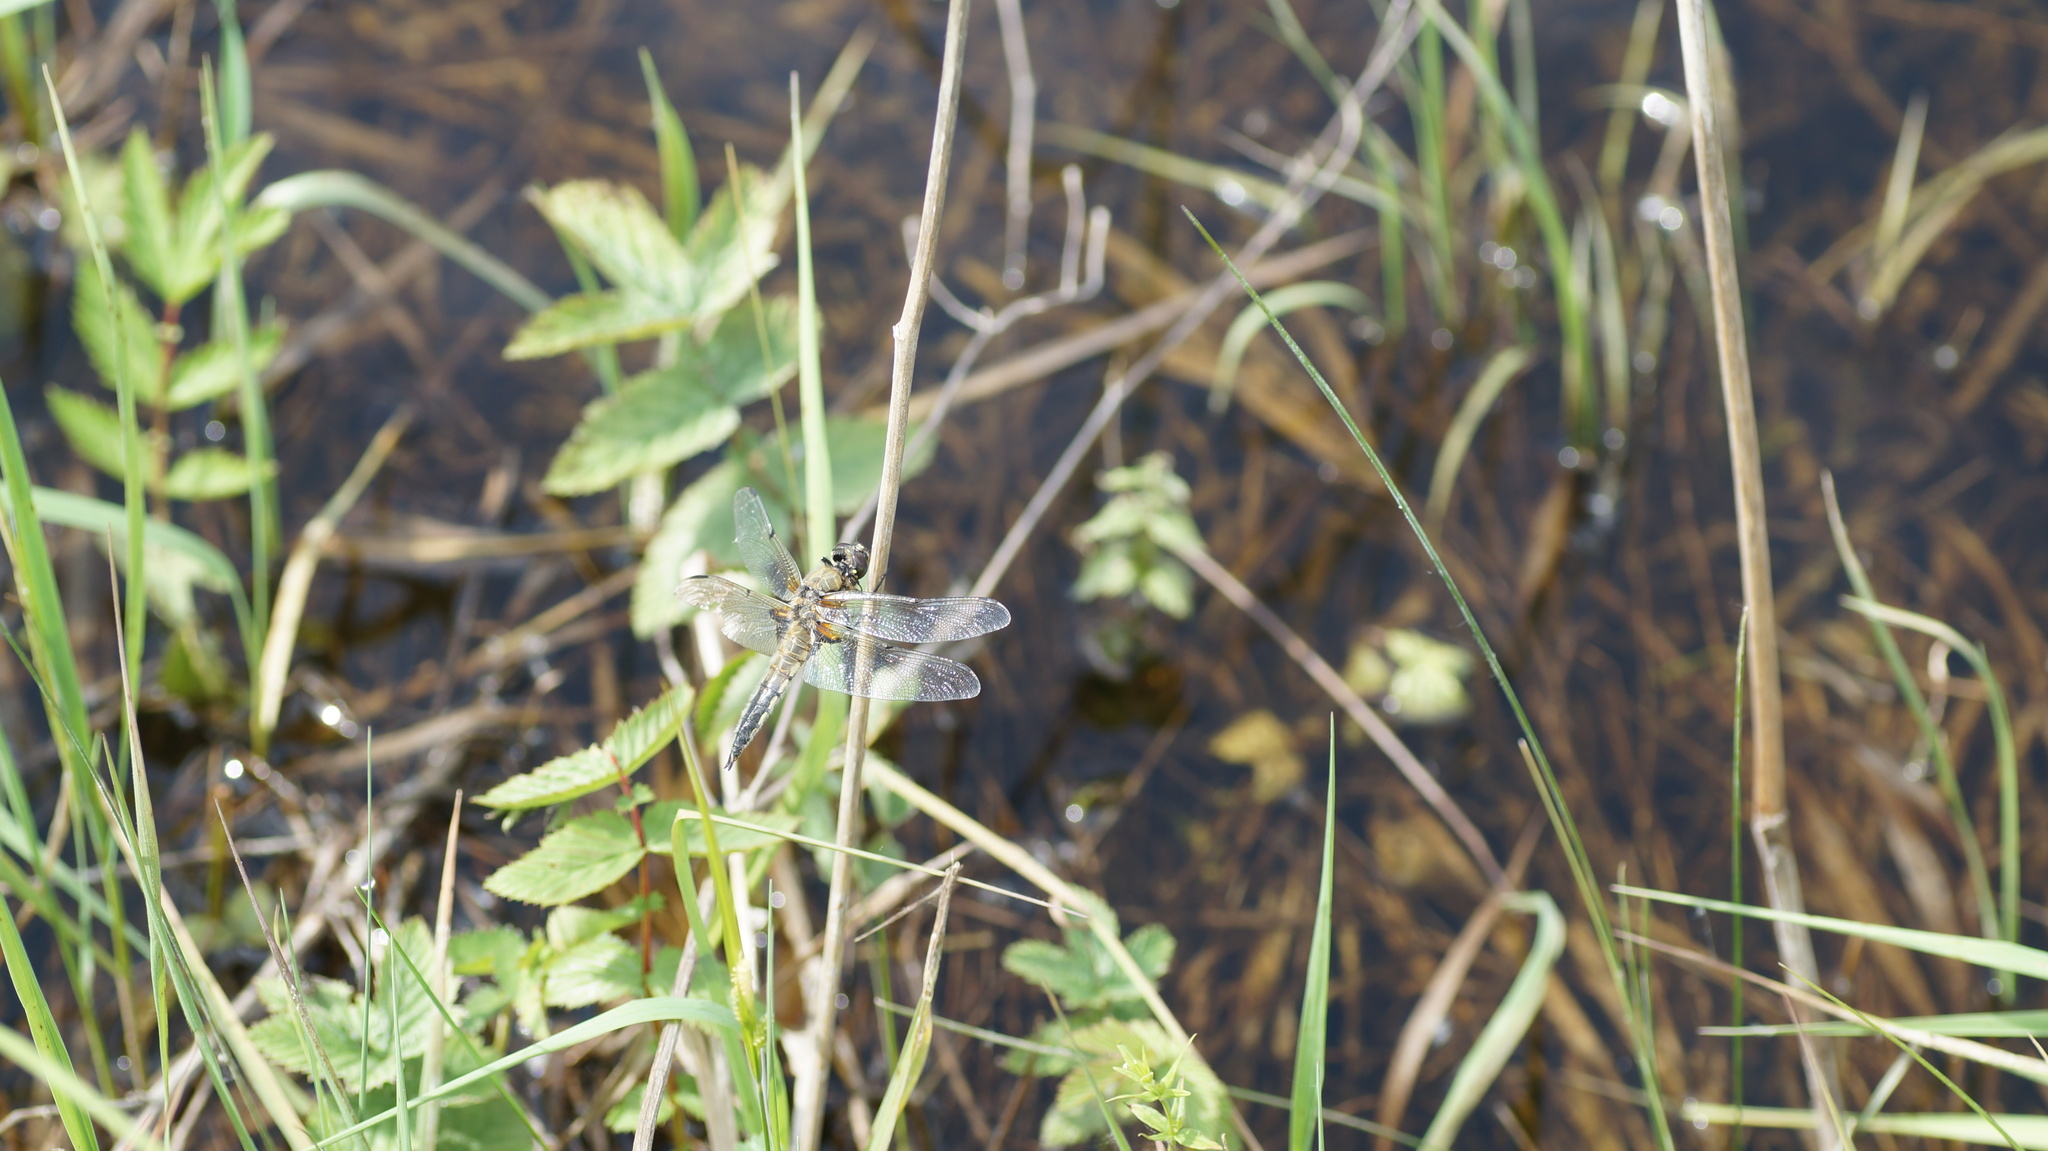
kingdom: Animalia
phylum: Arthropoda
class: Insecta
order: Odonata
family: Libellulidae
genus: Libellula
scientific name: Libellula quadrimaculata
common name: Four-spotted chaser
